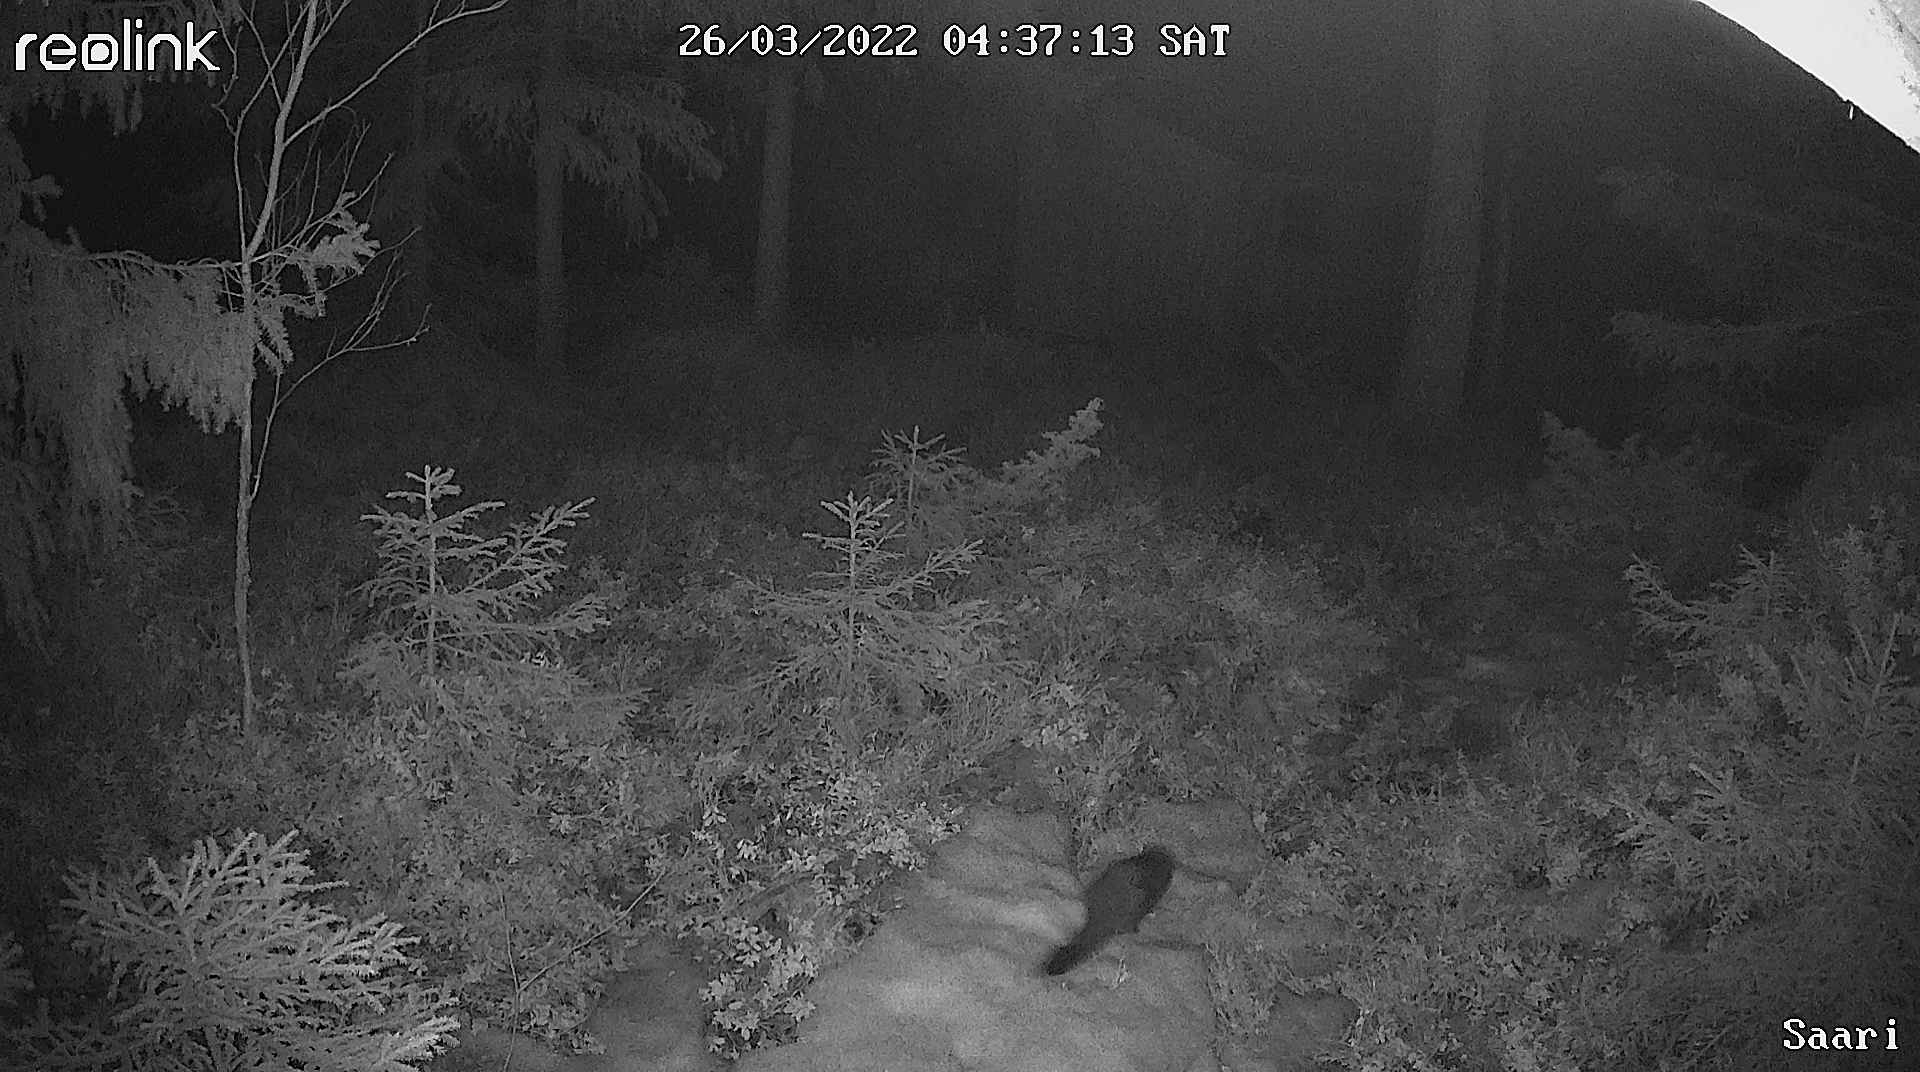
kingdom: Animalia
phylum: Chordata
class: Mammalia
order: Carnivora
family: Mustelidae
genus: Mustela
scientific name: Mustela
